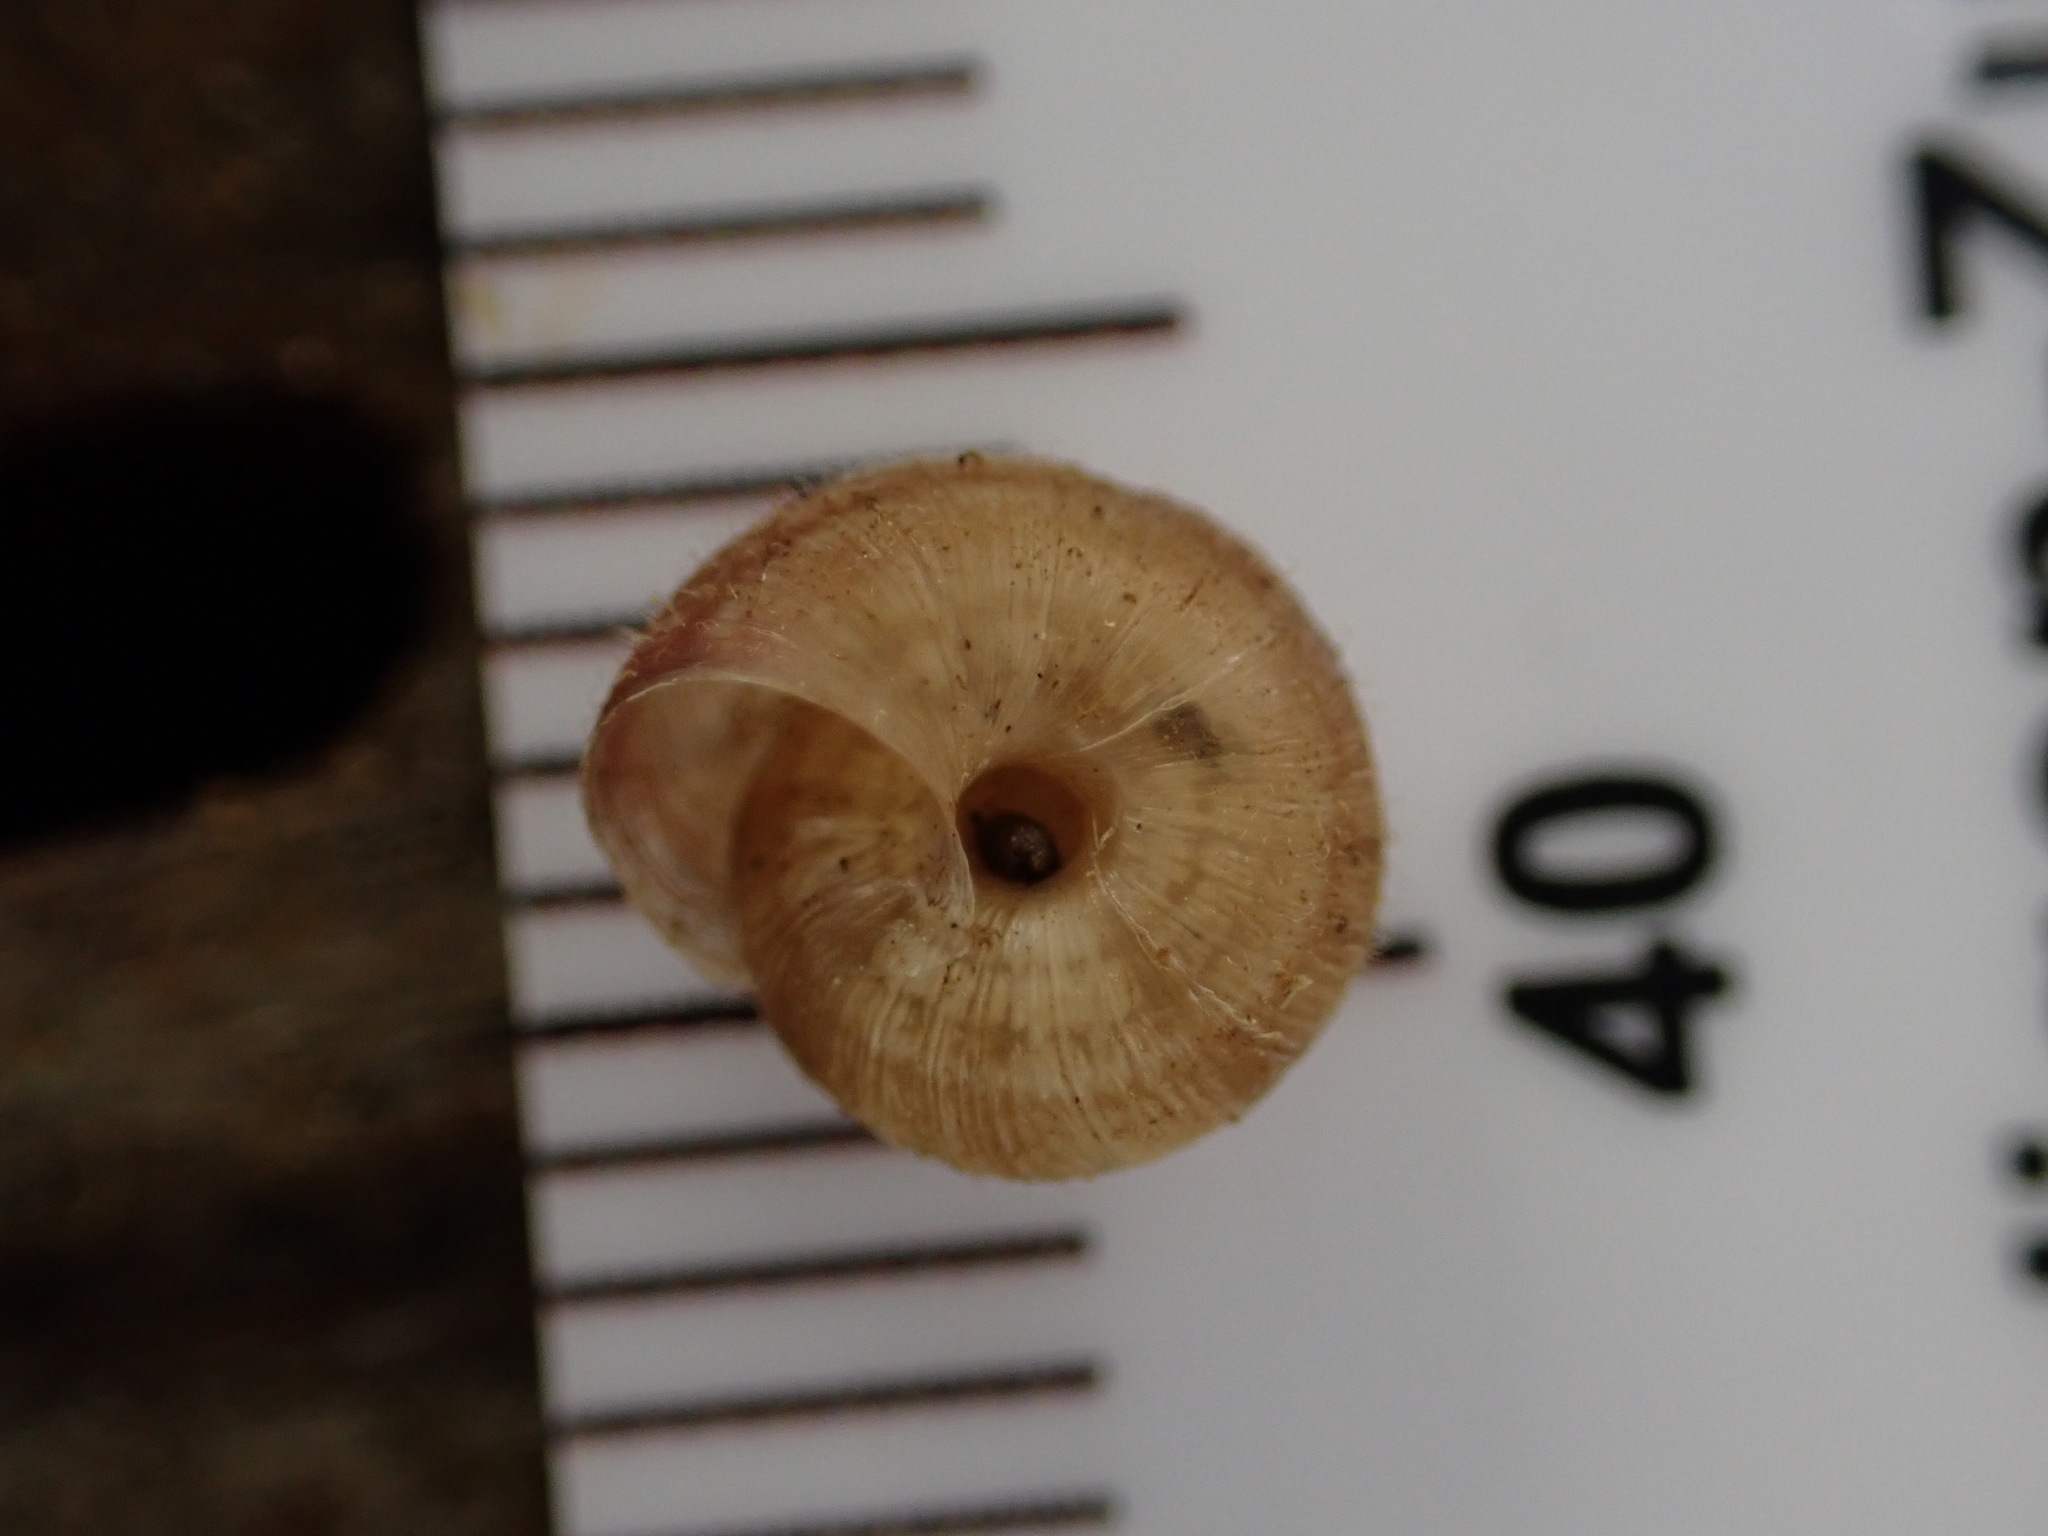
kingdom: Animalia
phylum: Mollusca
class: Gastropoda
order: Stylommatophora
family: Geomitridae
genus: Xerotricha
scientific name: Xerotricha conspurcata
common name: Snail
